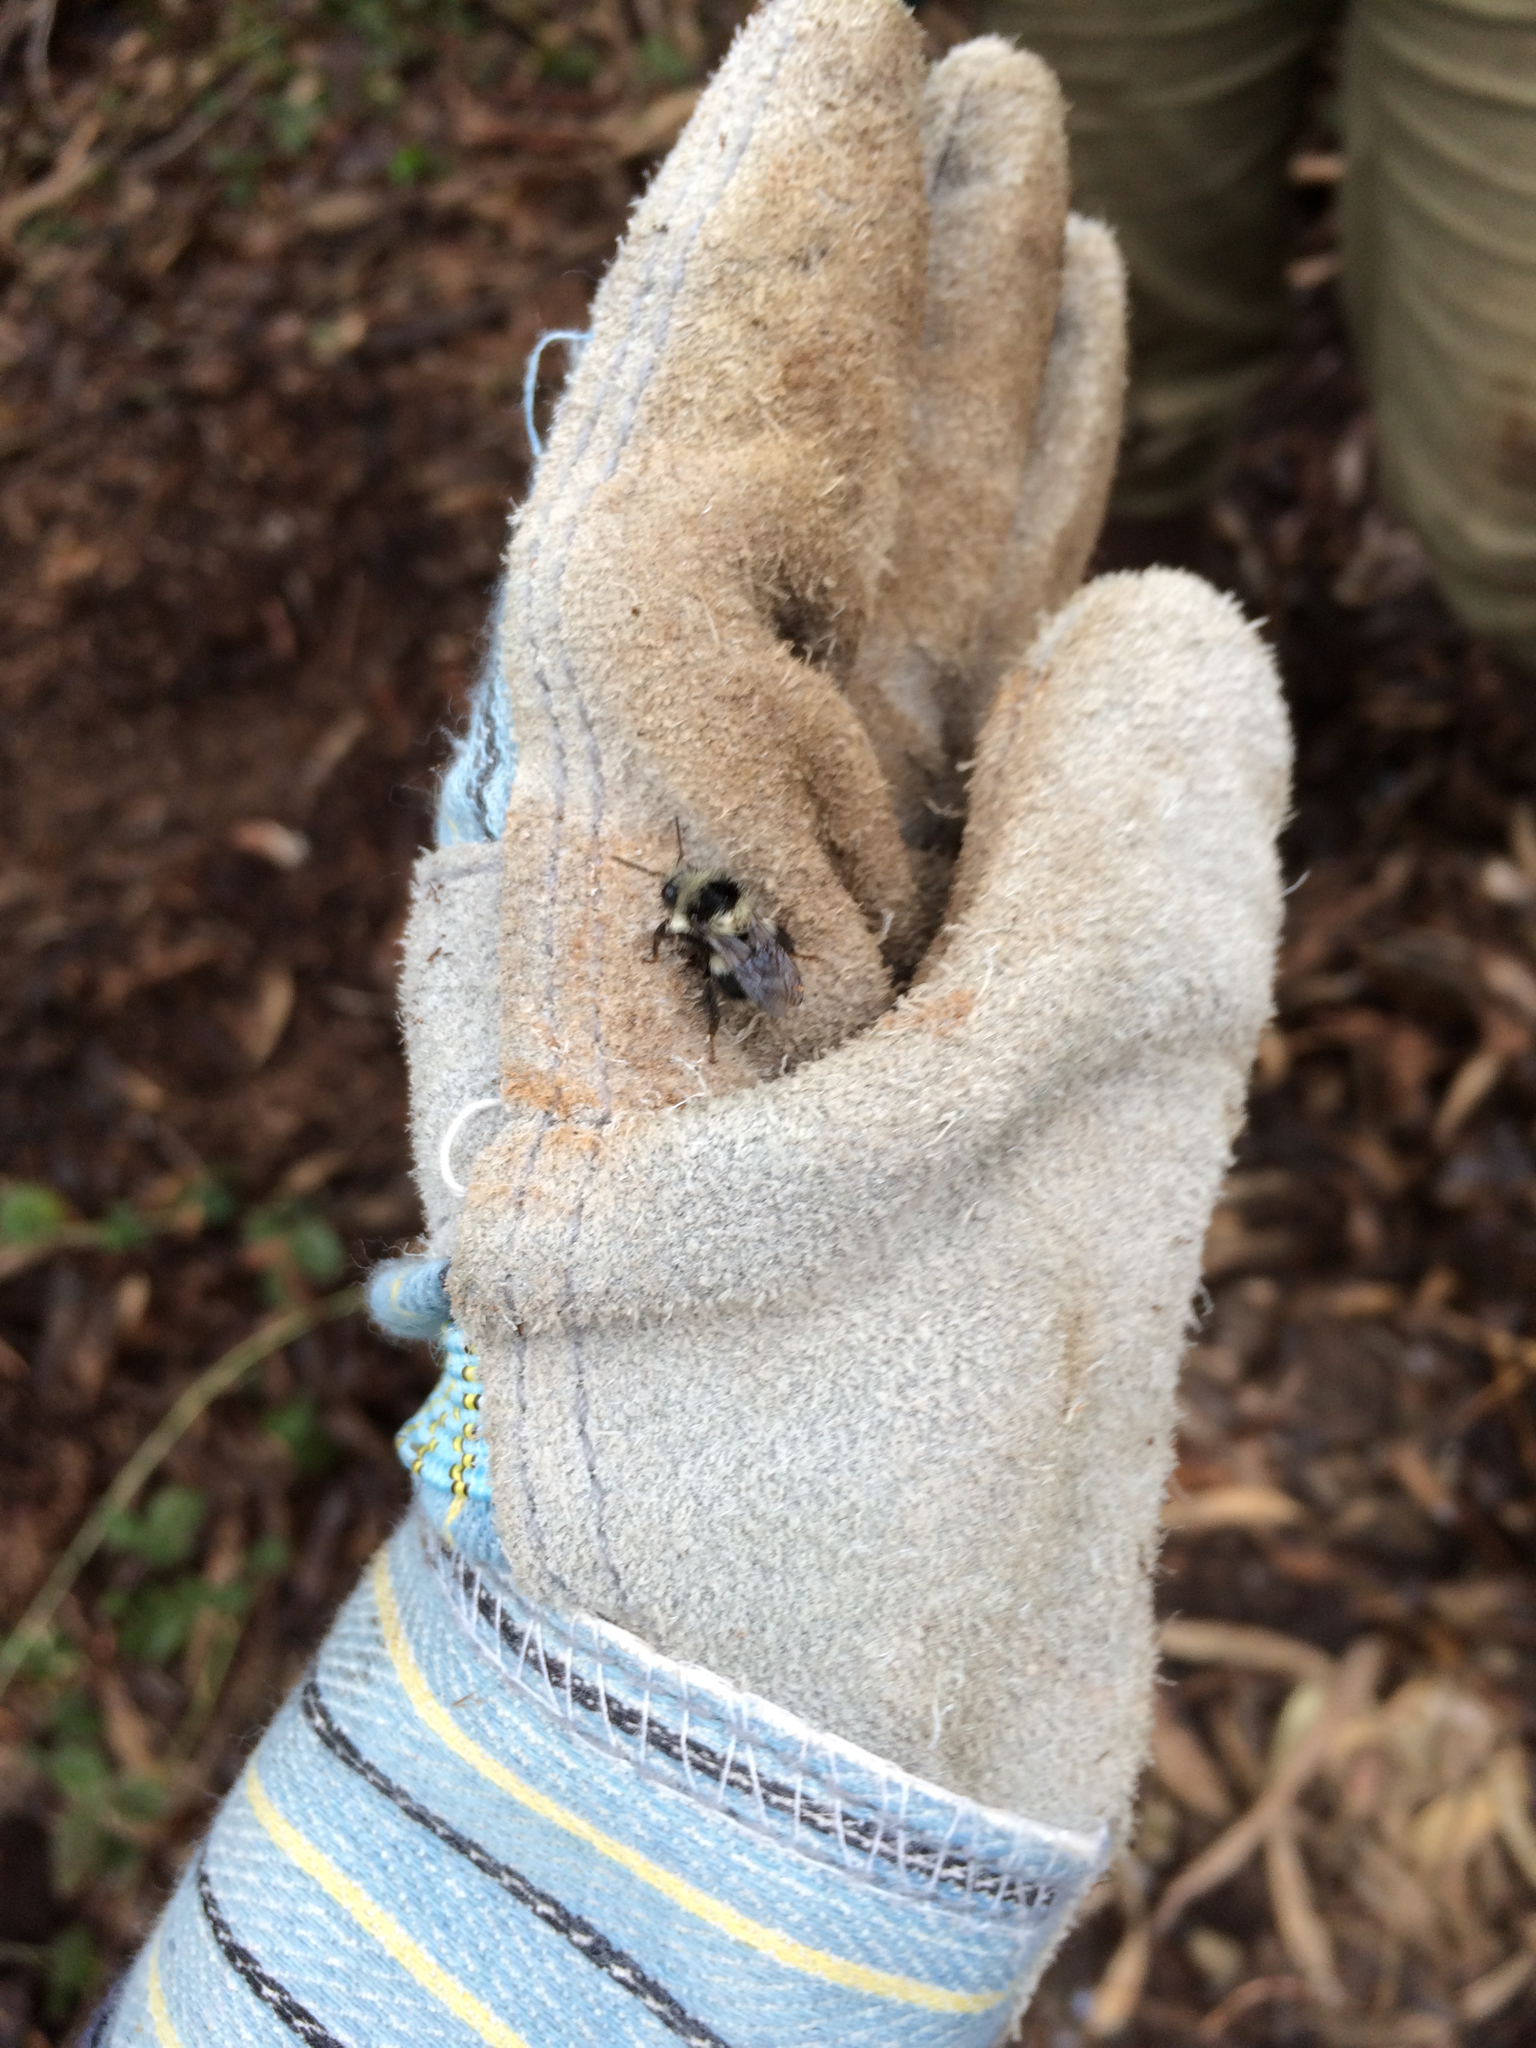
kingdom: Animalia
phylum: Arthropoda
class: Insecta
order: Hymenoptera
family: Apidae
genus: Bombus
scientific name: Bombus melanopygus
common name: Black tail bumble bee
